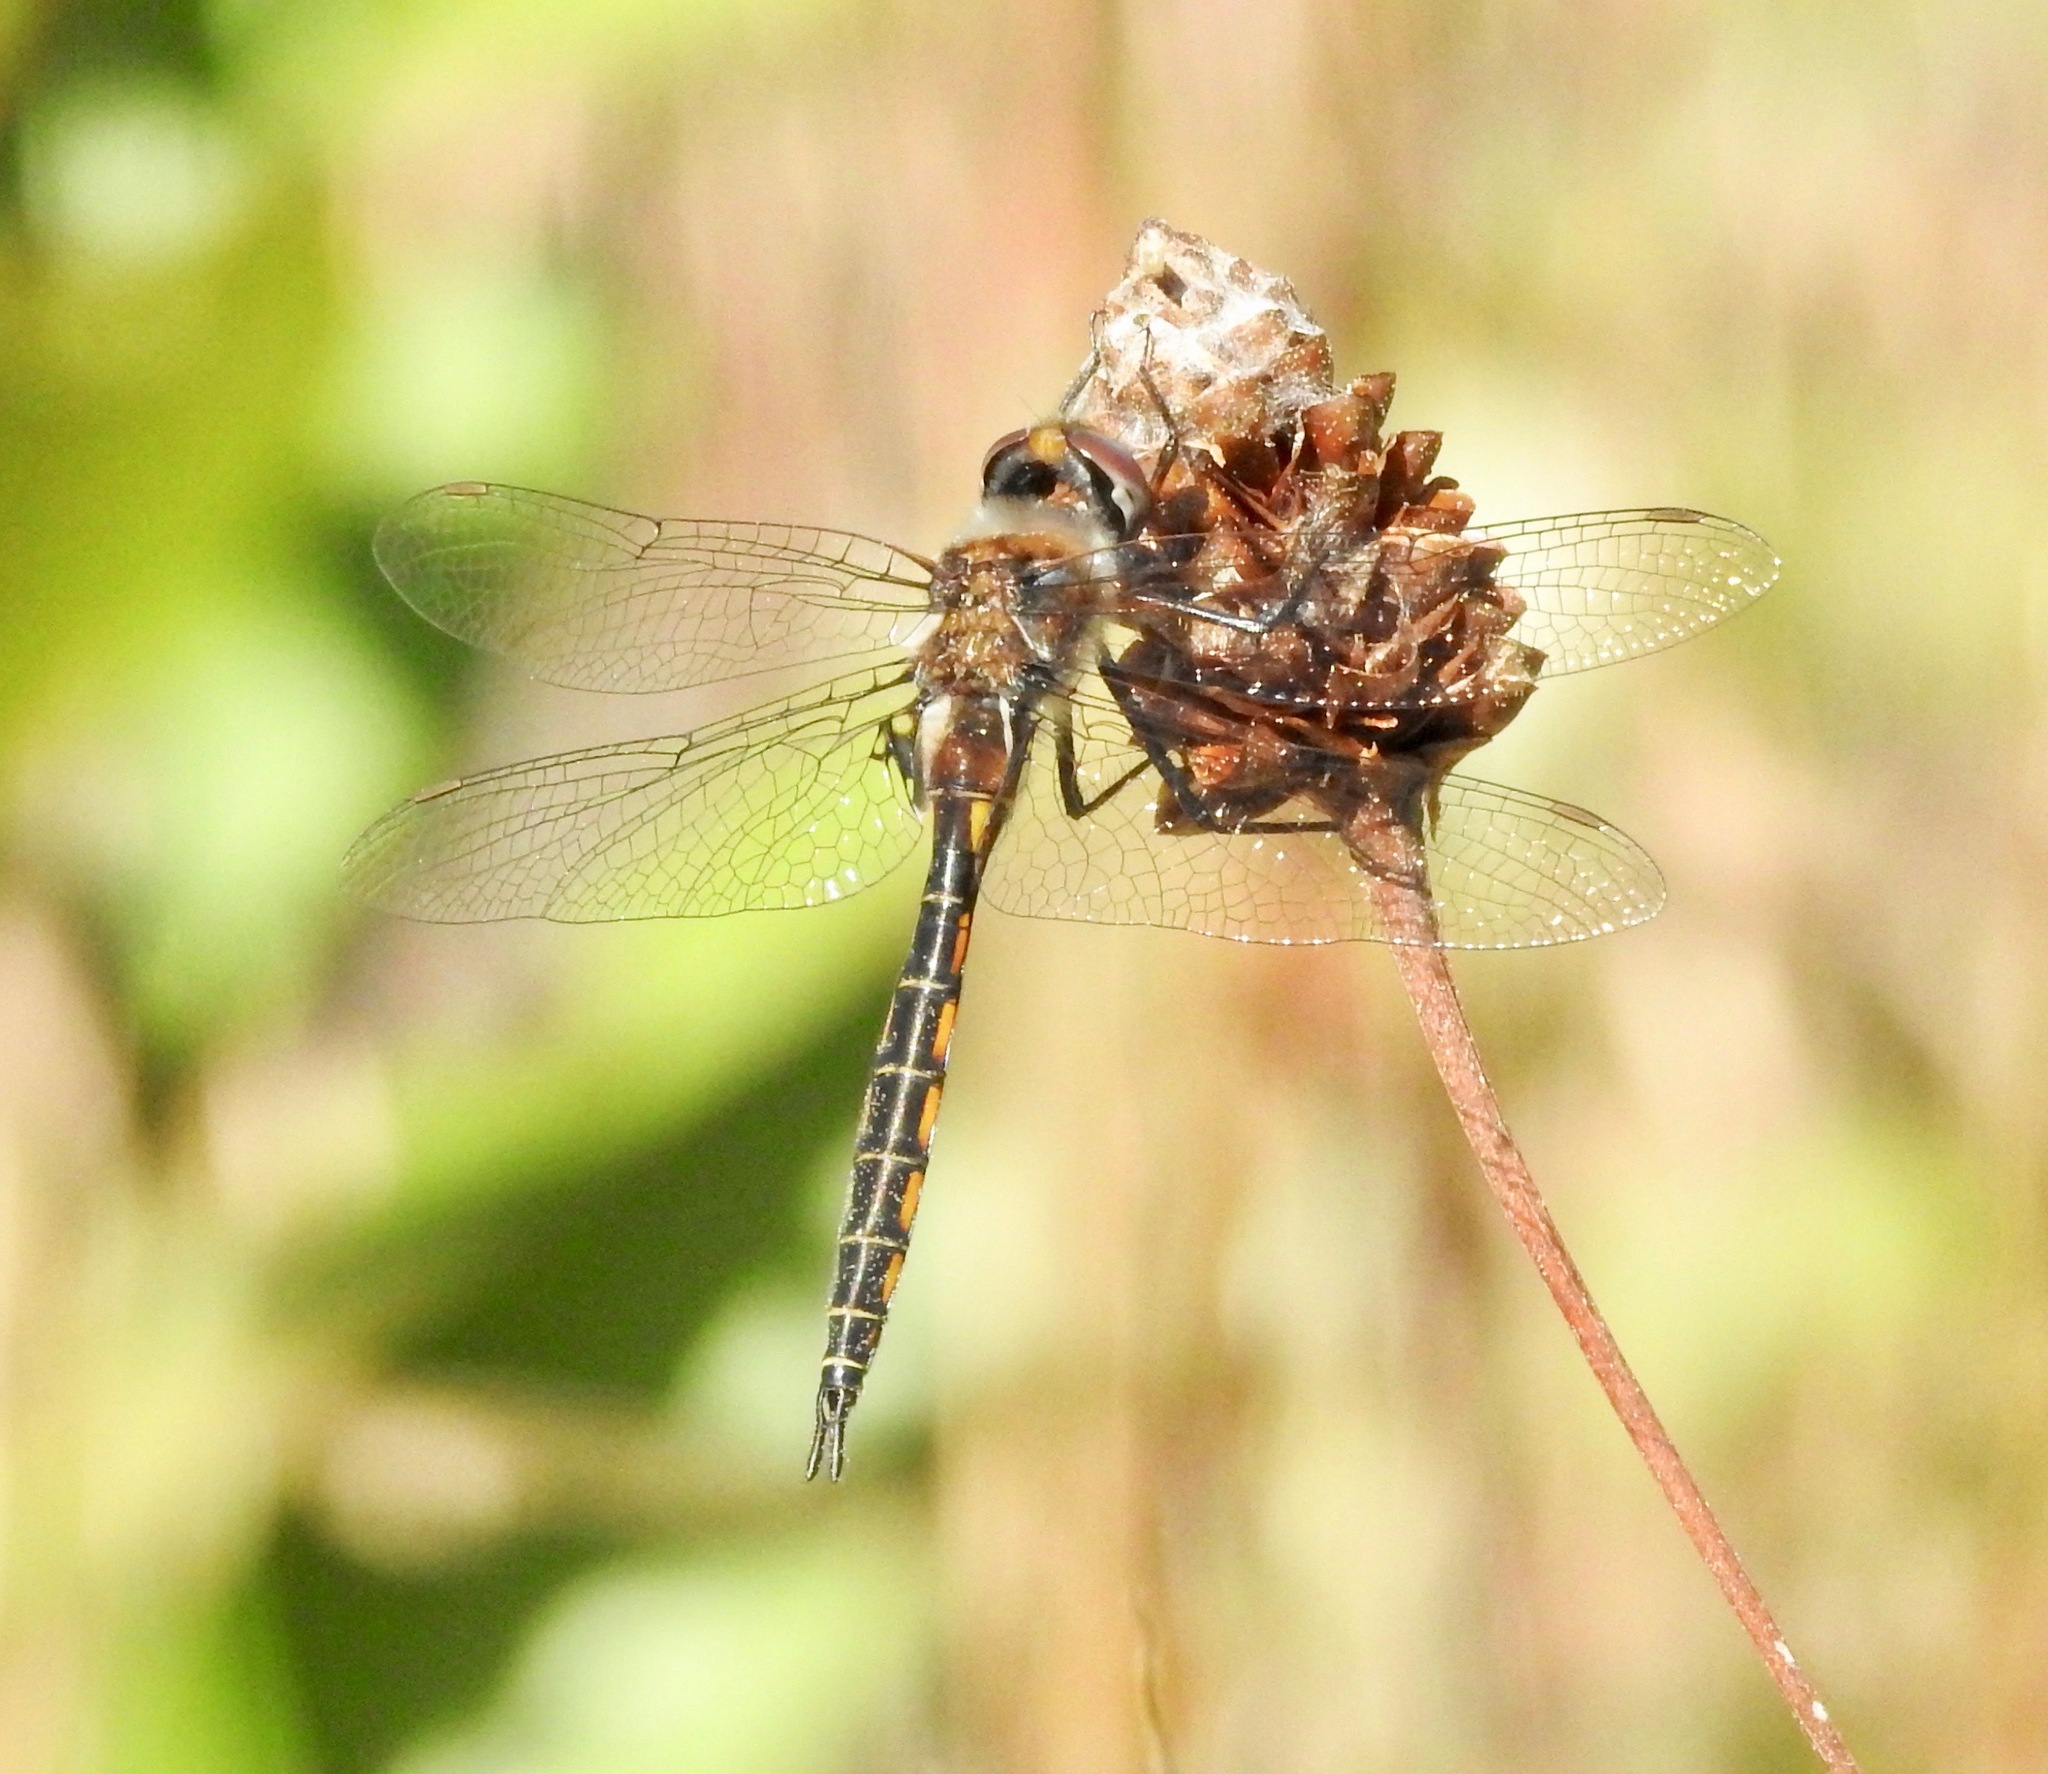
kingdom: Animalia
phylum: Arthropoda
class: Insecta
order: Odonata
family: Corduliidae
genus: Epitheca
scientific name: Epitheca costalis
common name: Slender baskettail
